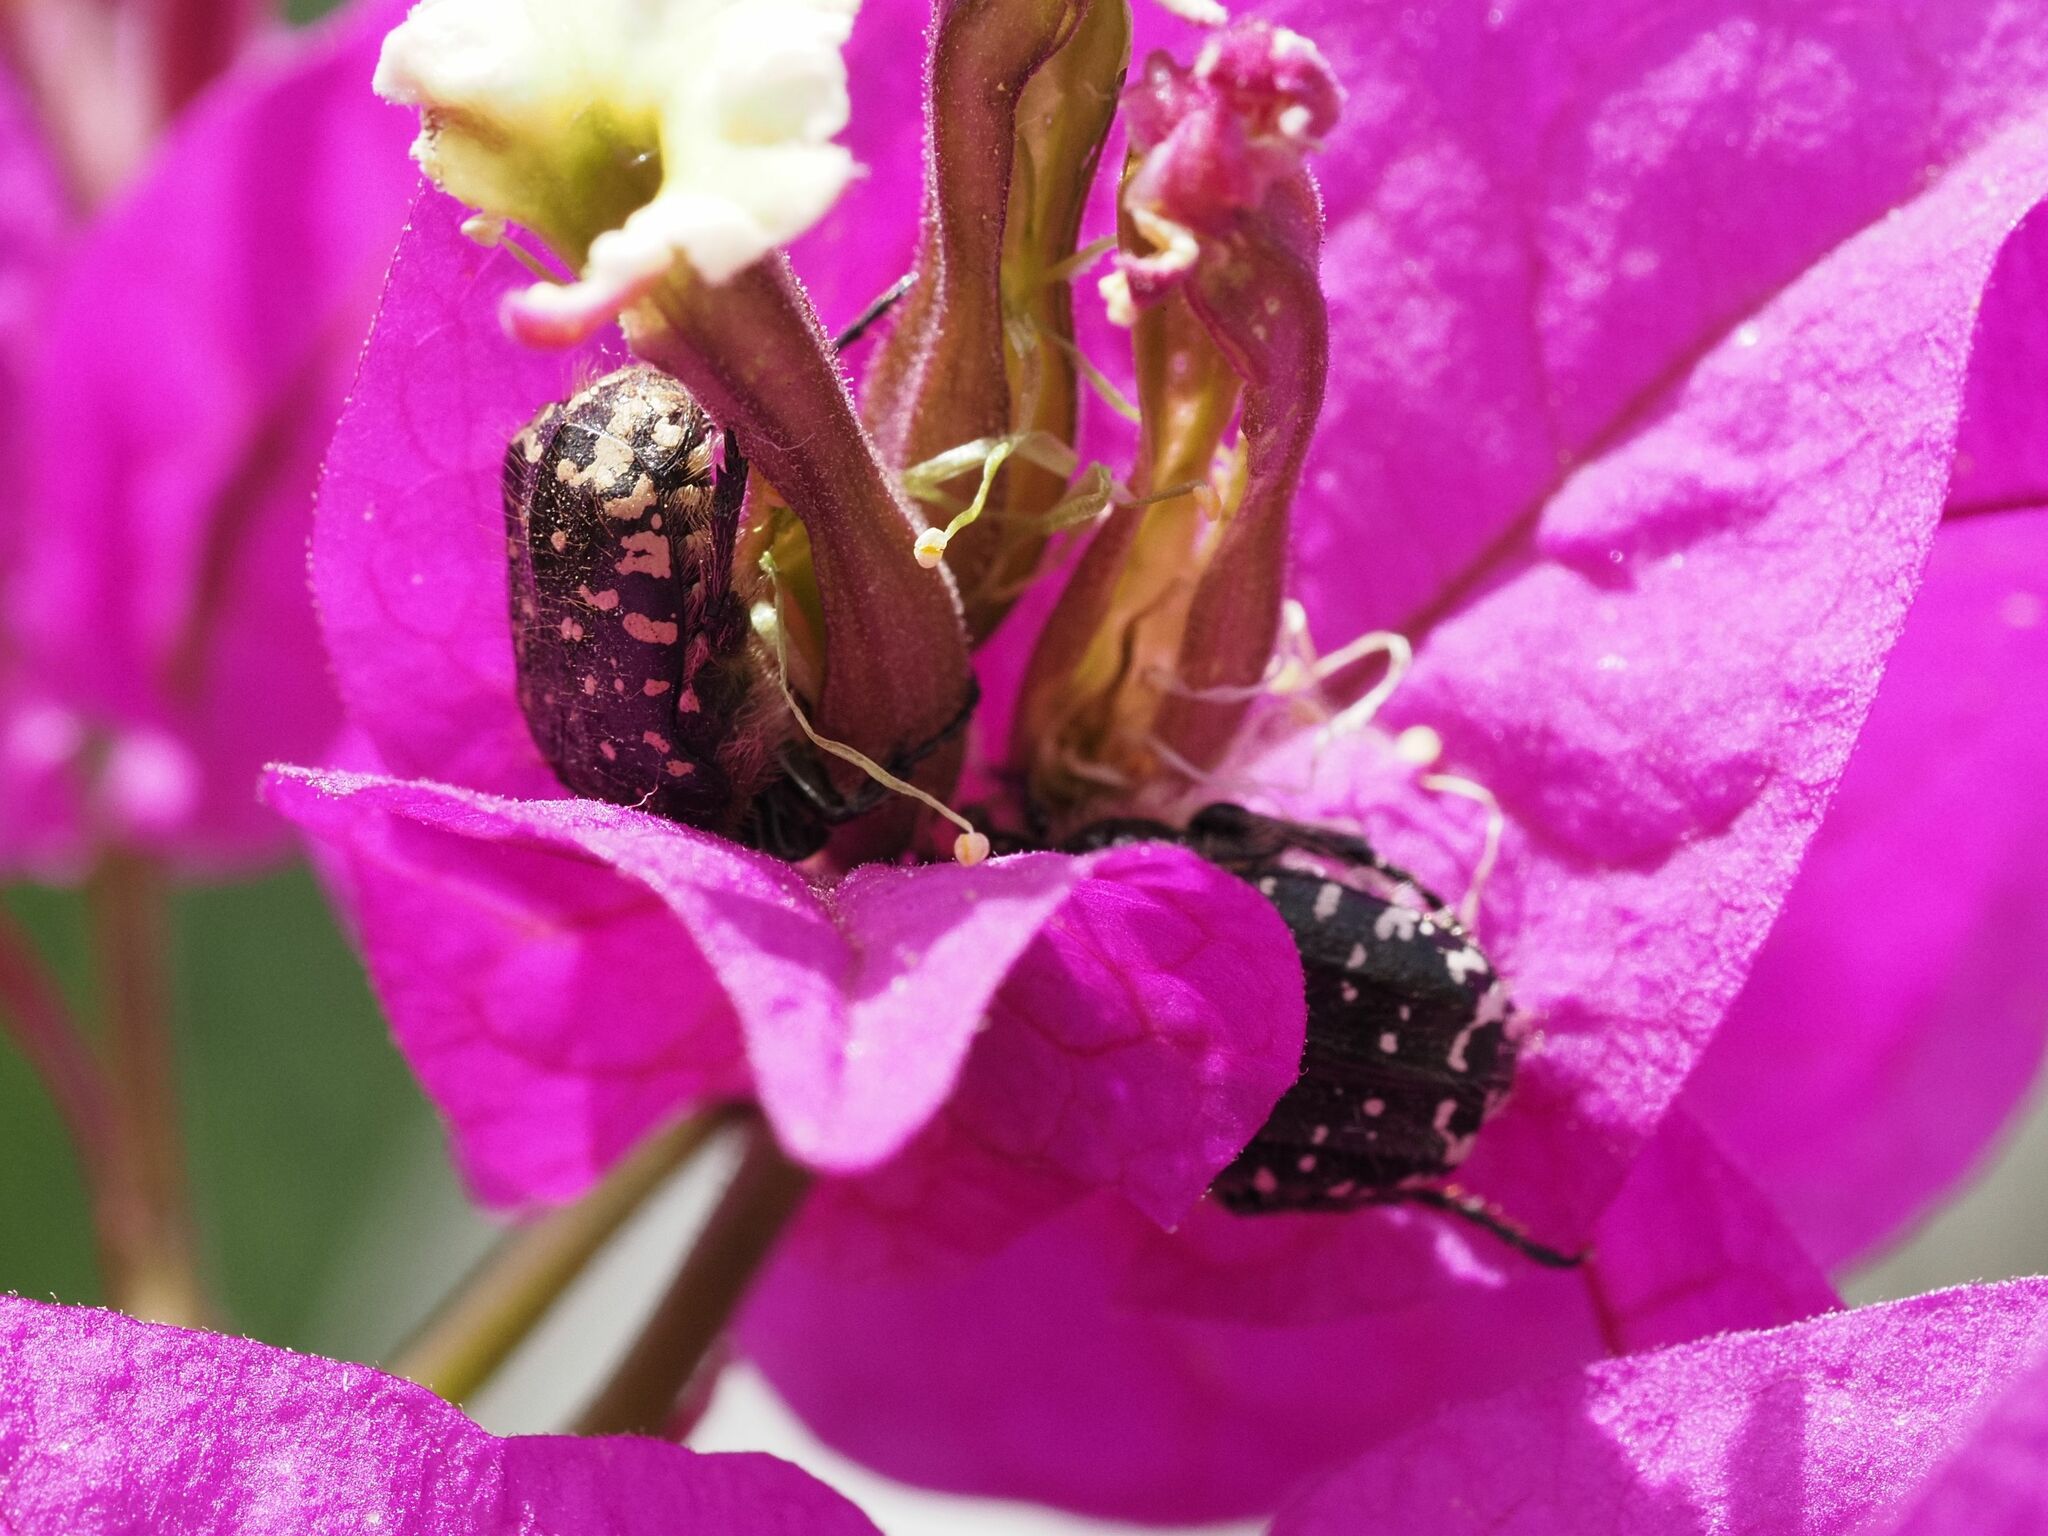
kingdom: Animalia
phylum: Arthropoda
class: Insecta
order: Coleoptera
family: Scarabaeidae
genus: Oxythyrea
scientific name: Oxythyrea funesta
